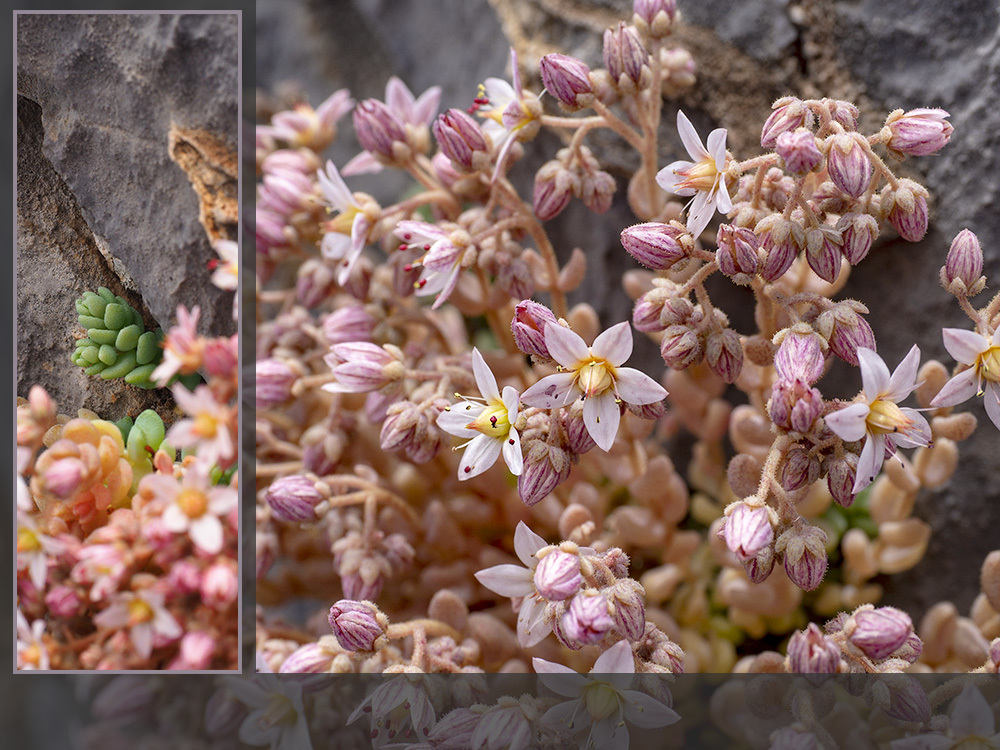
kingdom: Plantae
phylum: Tracheophyta
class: Magnoliopsida
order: Saxifragales
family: Crassulaceae
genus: Sedum
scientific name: Sedum dasyphyllum
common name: Thick-leaf stonecrop
